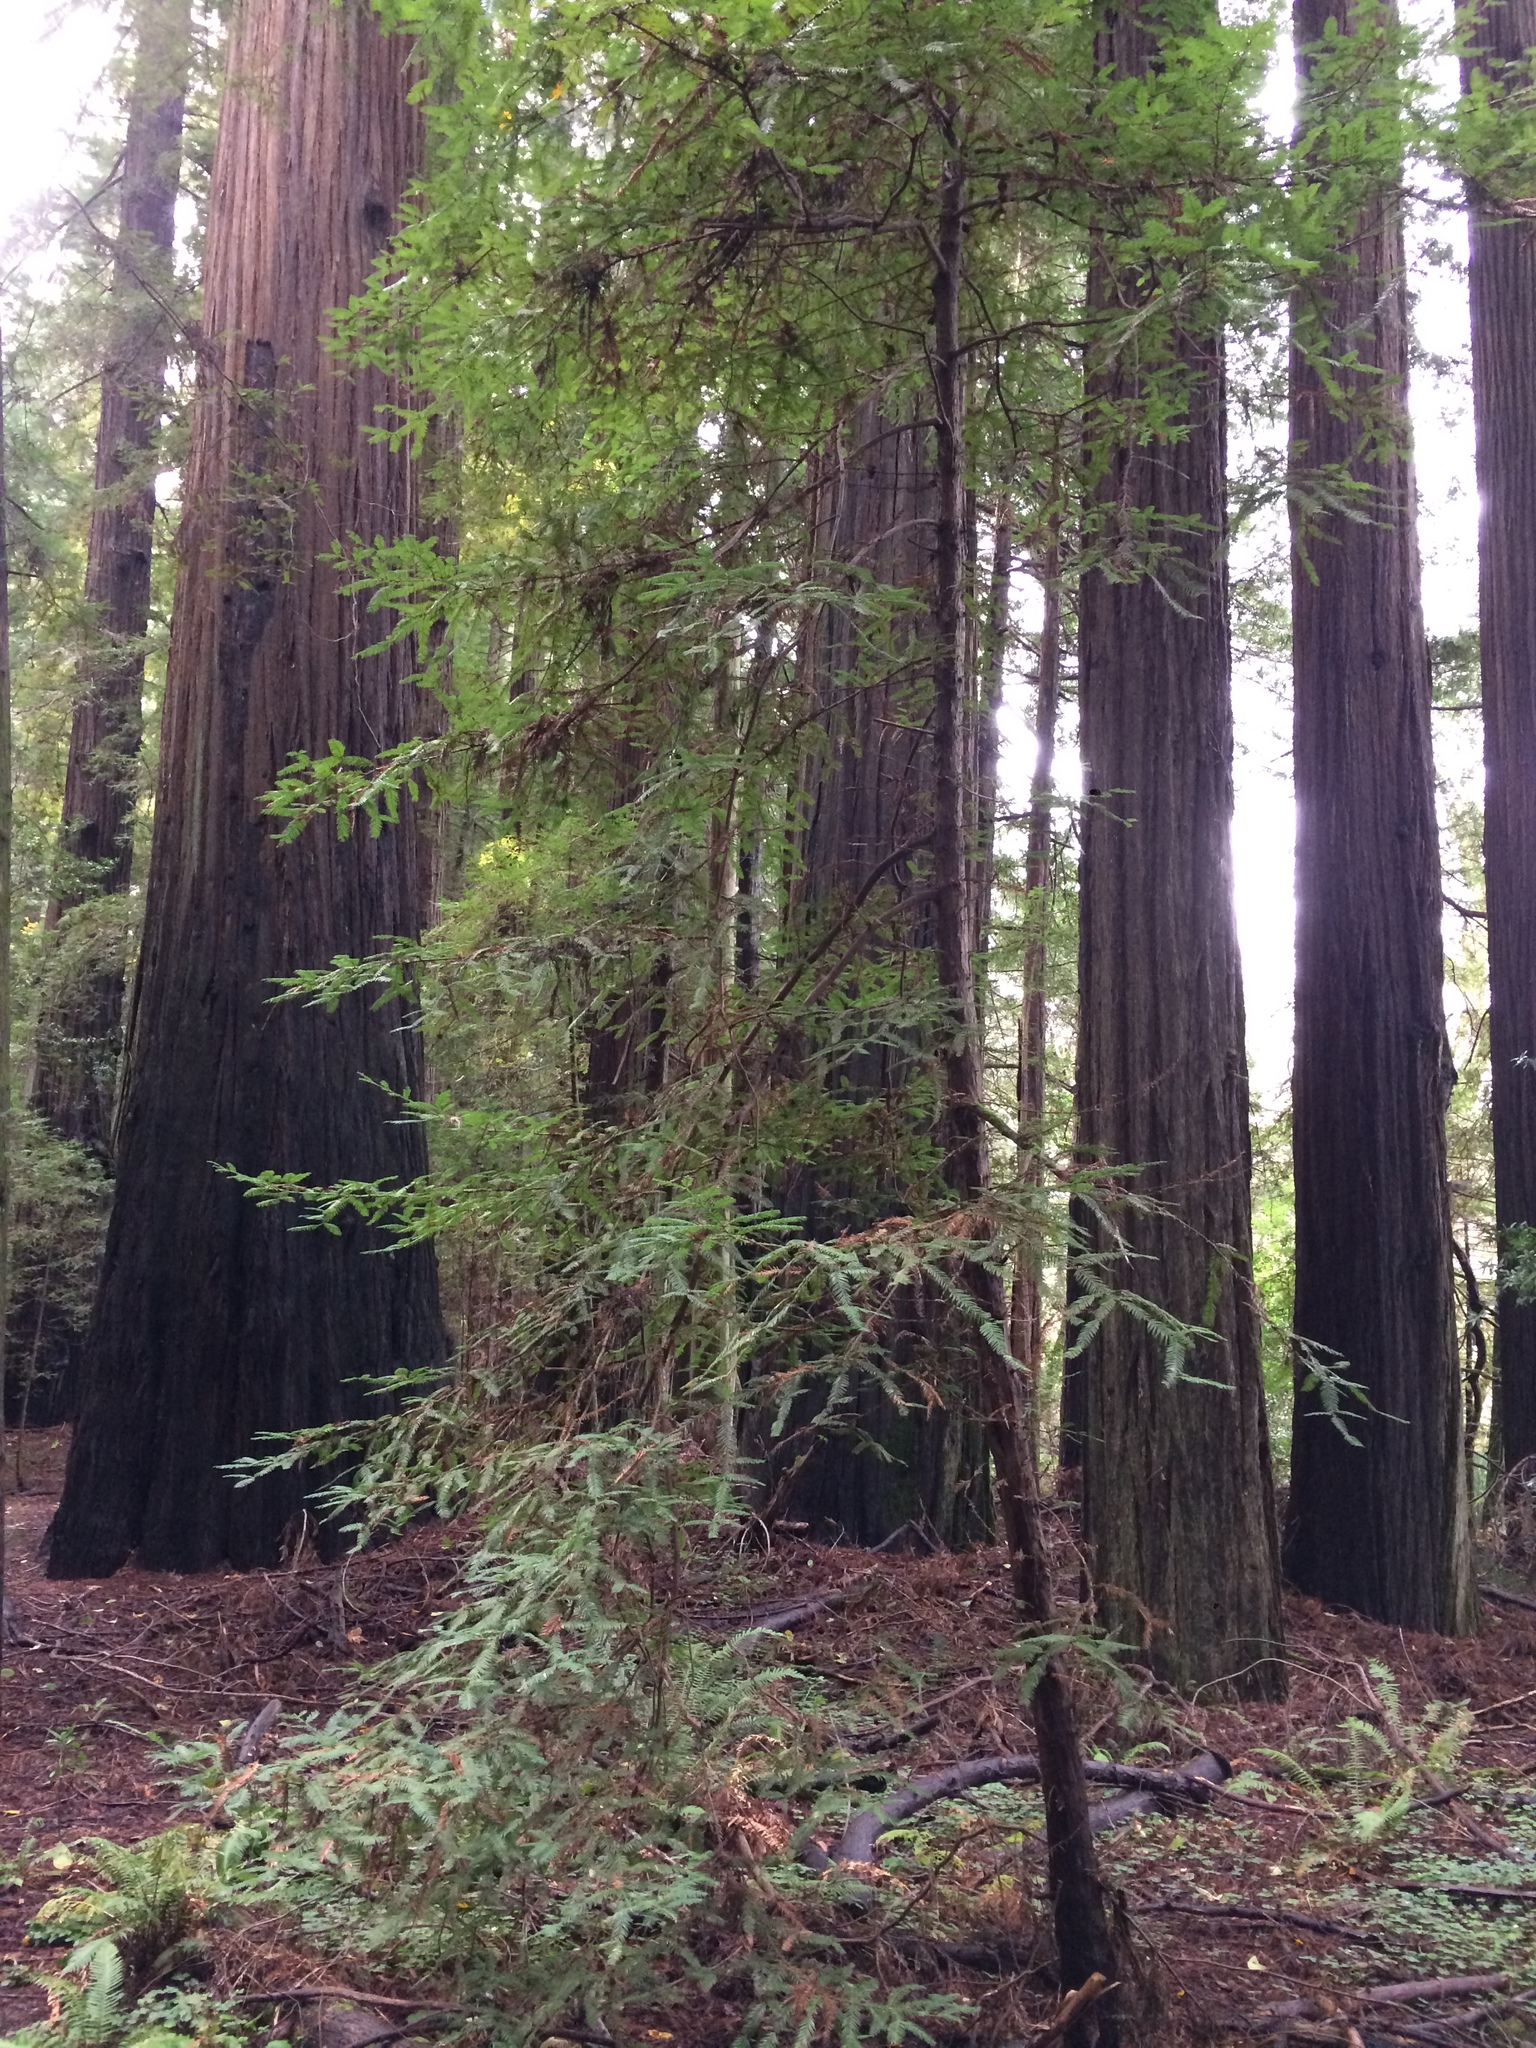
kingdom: Plantae
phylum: Tracheophyta
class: Pinopsida
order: Pinales
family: Cupressaceae
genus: Sequoia
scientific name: Sequoia sempervirens
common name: Coast redwood
